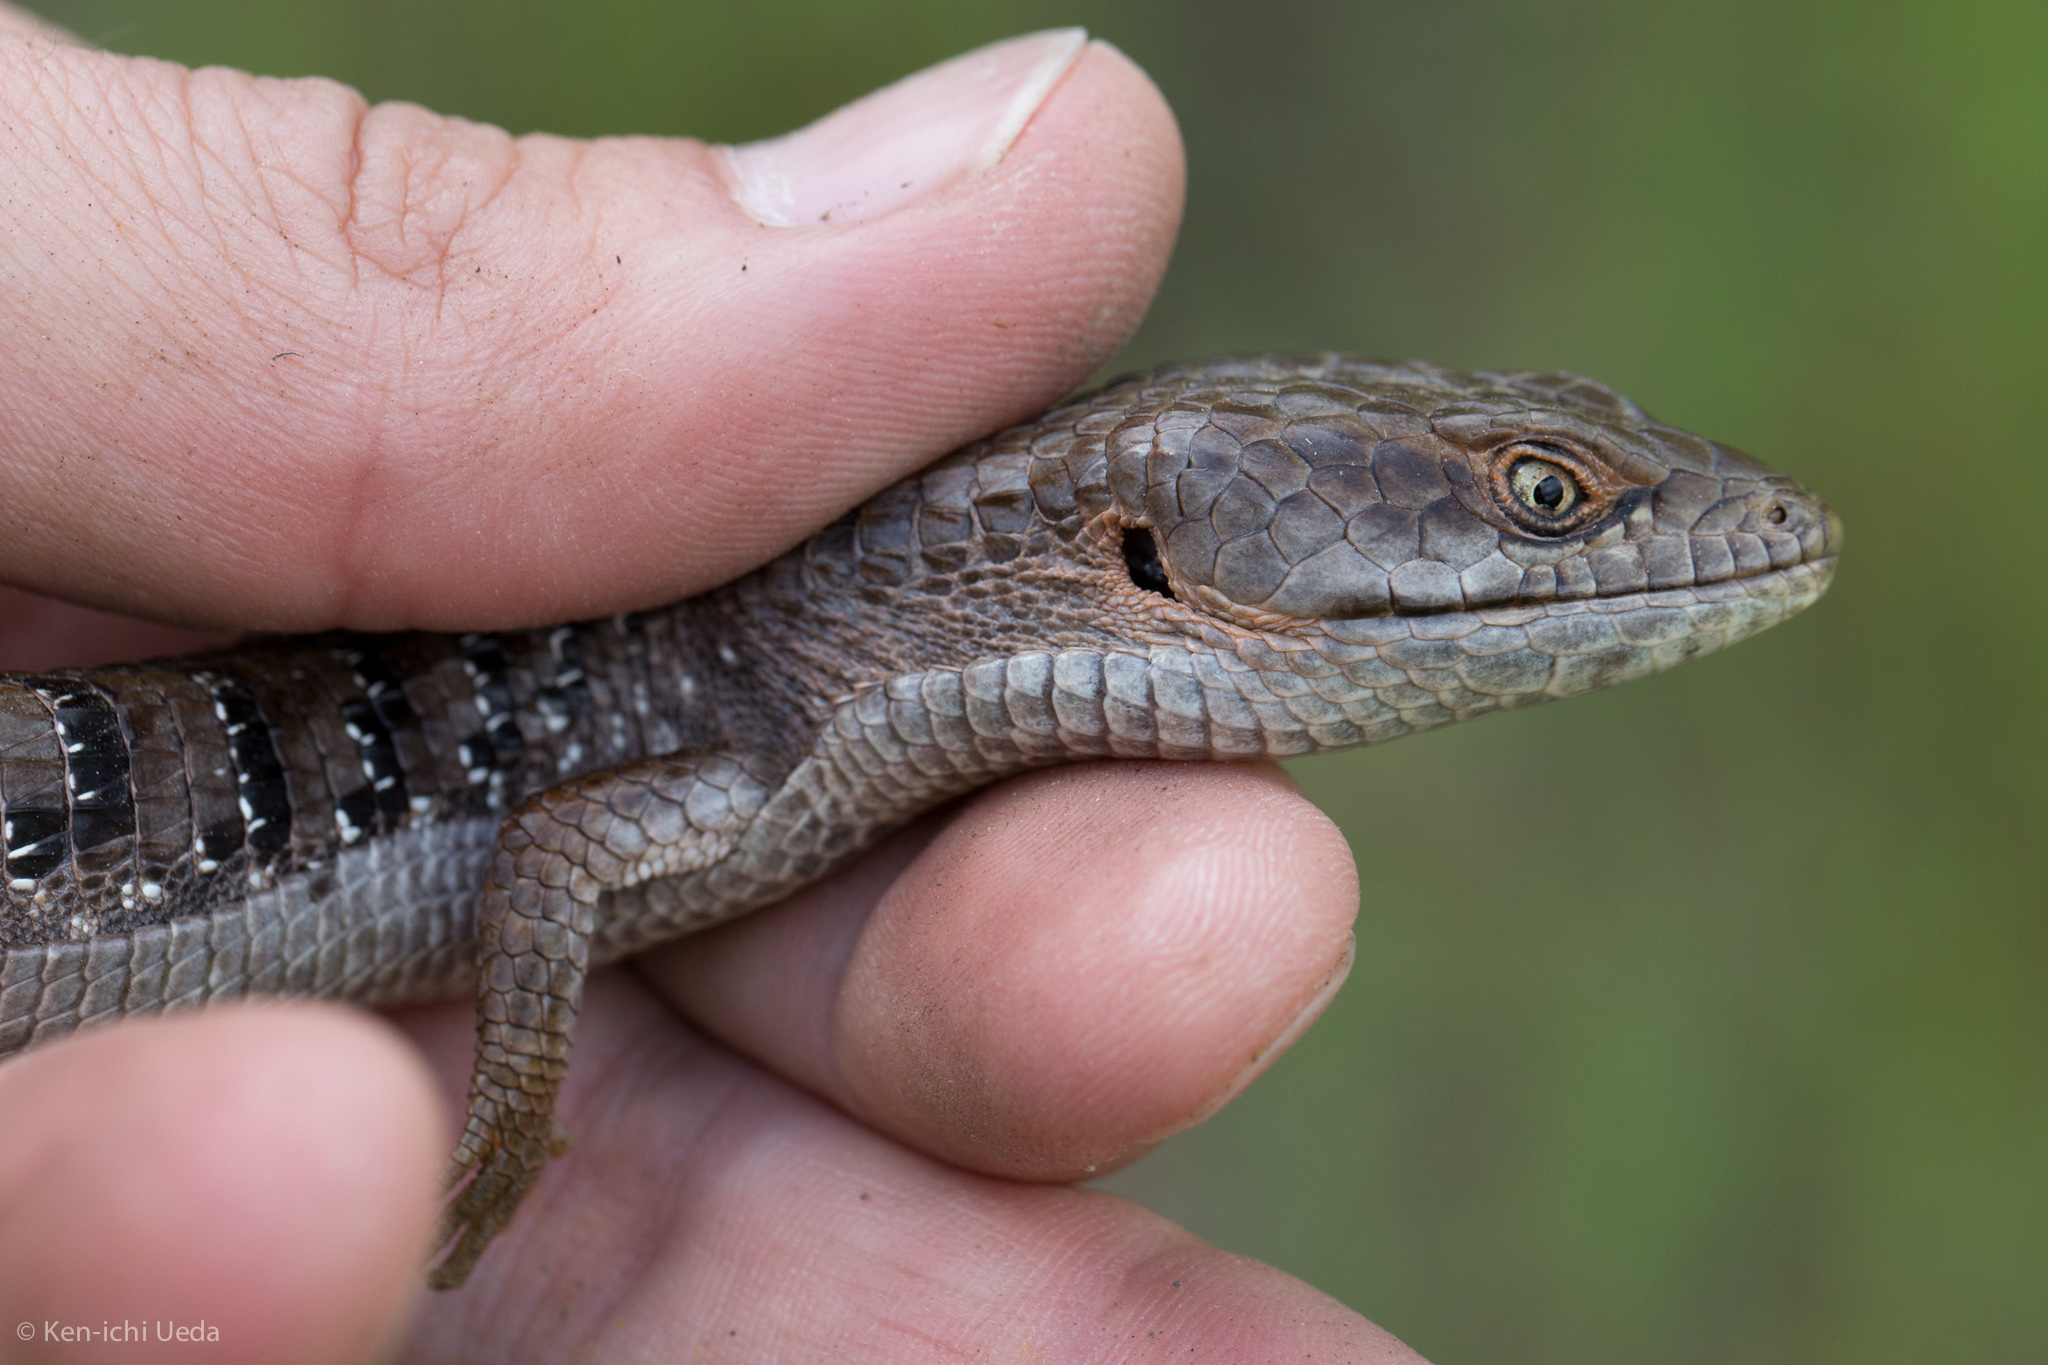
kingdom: Animalia
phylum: Chordata
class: Squamata
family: Anguidae
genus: Elgaria
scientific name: Elgaria multicarinata
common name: Southern alligator lizard
